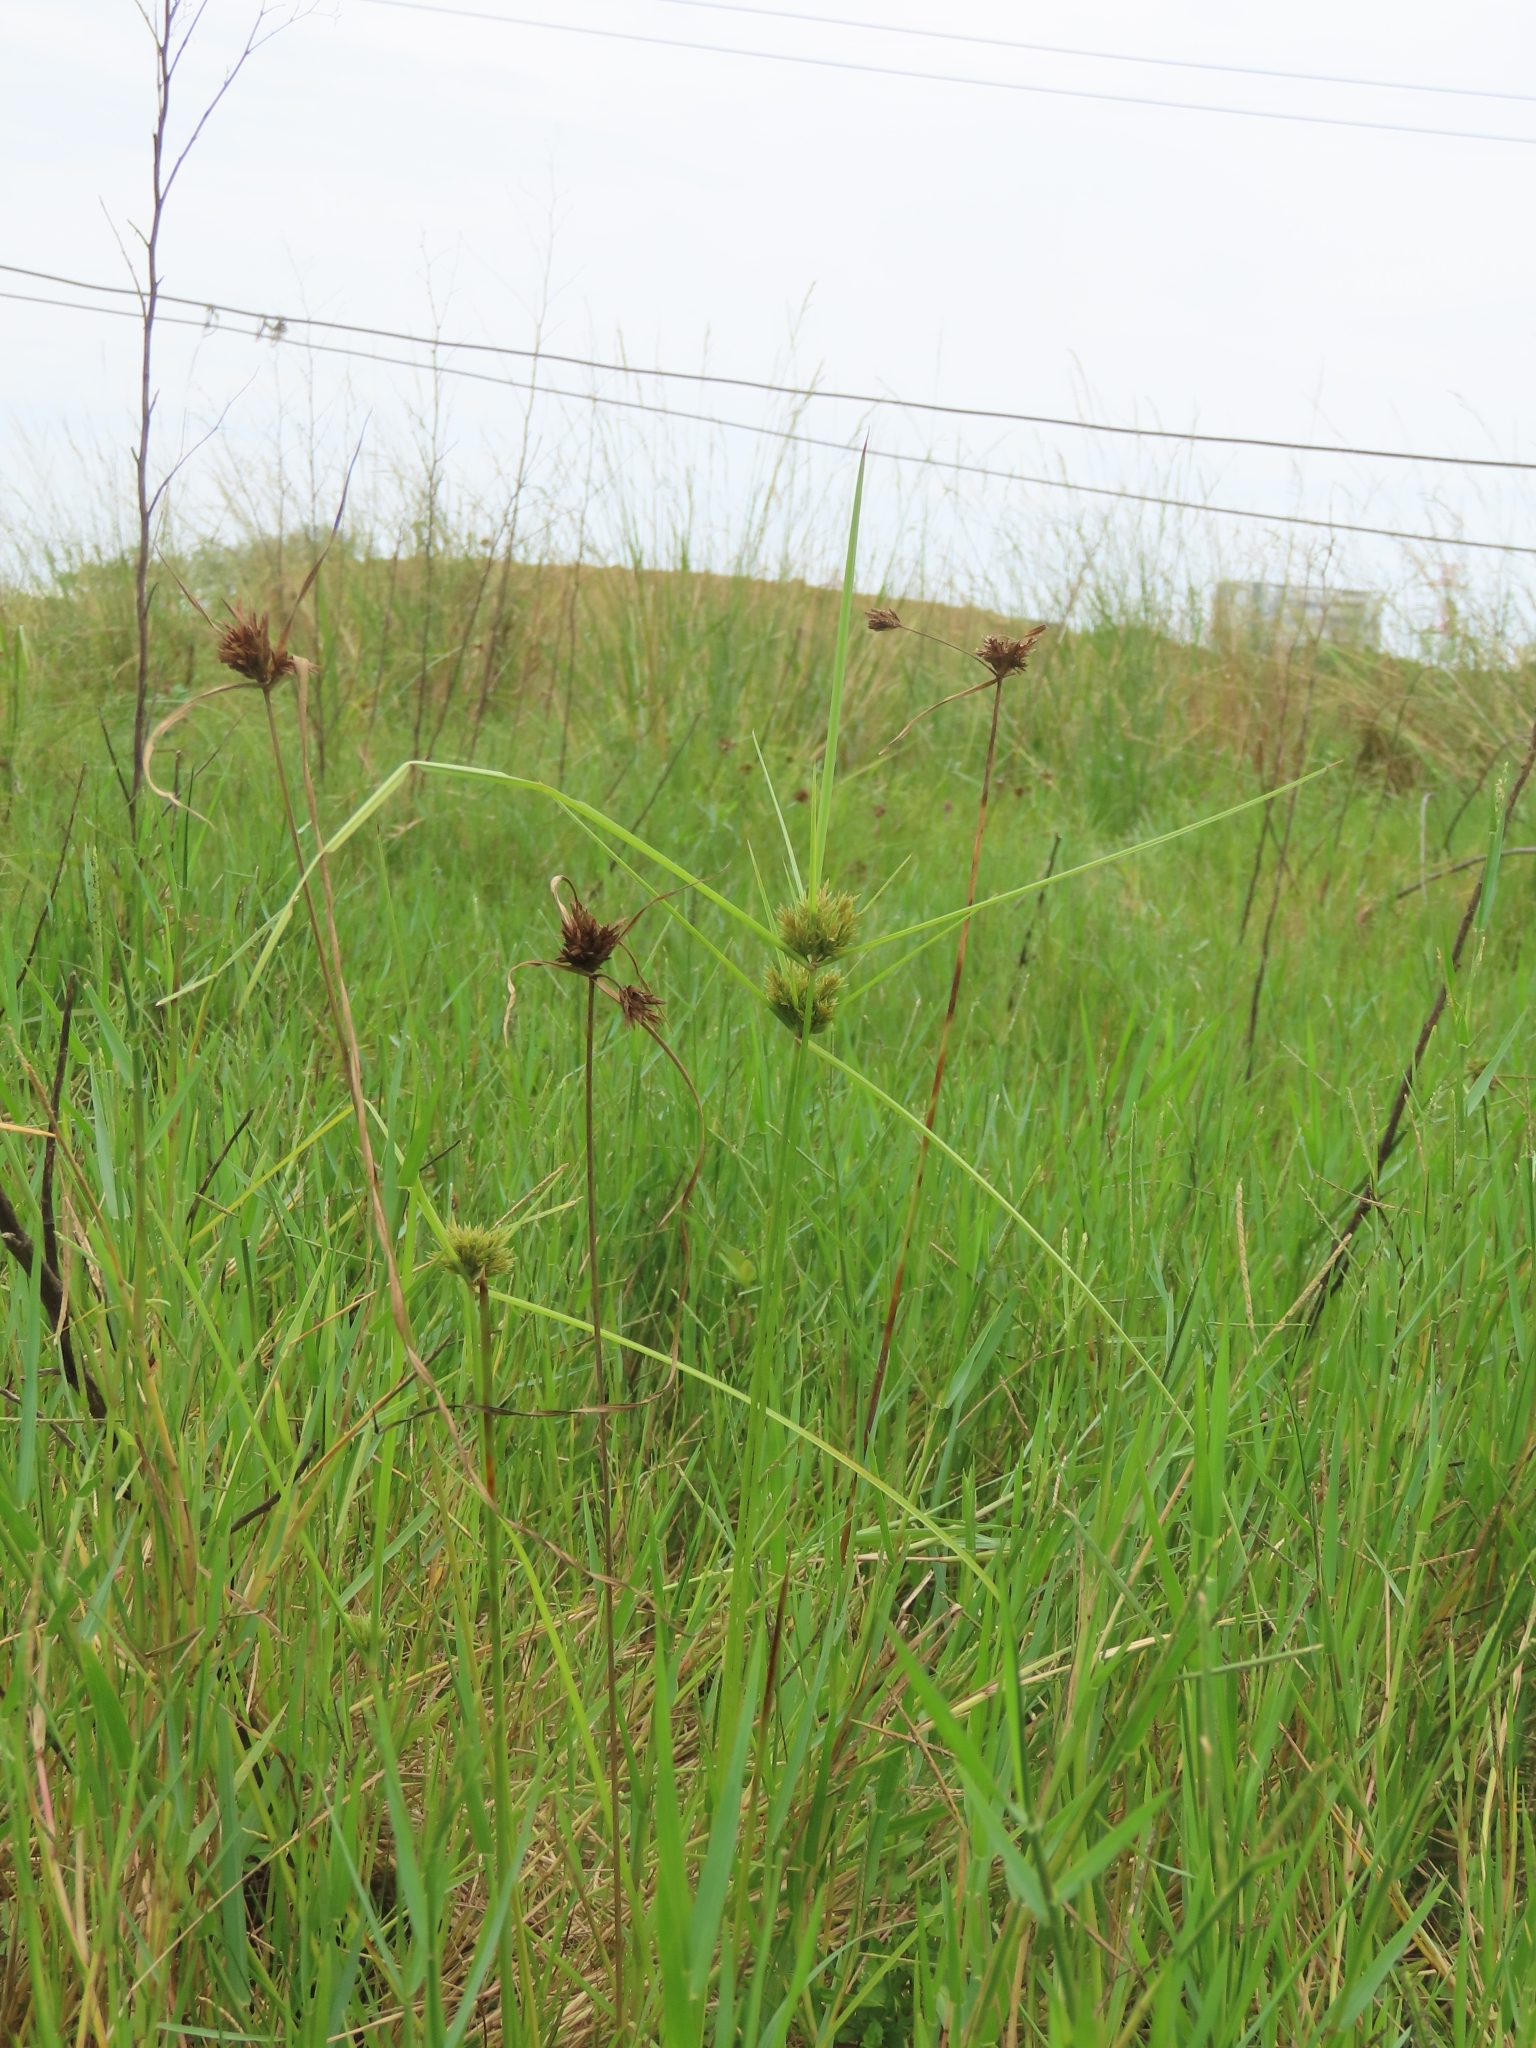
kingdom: Plantae
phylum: Tracheophyta
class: Liliopsida
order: Poales
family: Cyperaceae
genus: Cyperus
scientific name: Cyperus polystachyos
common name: Bunchy flat sedge
